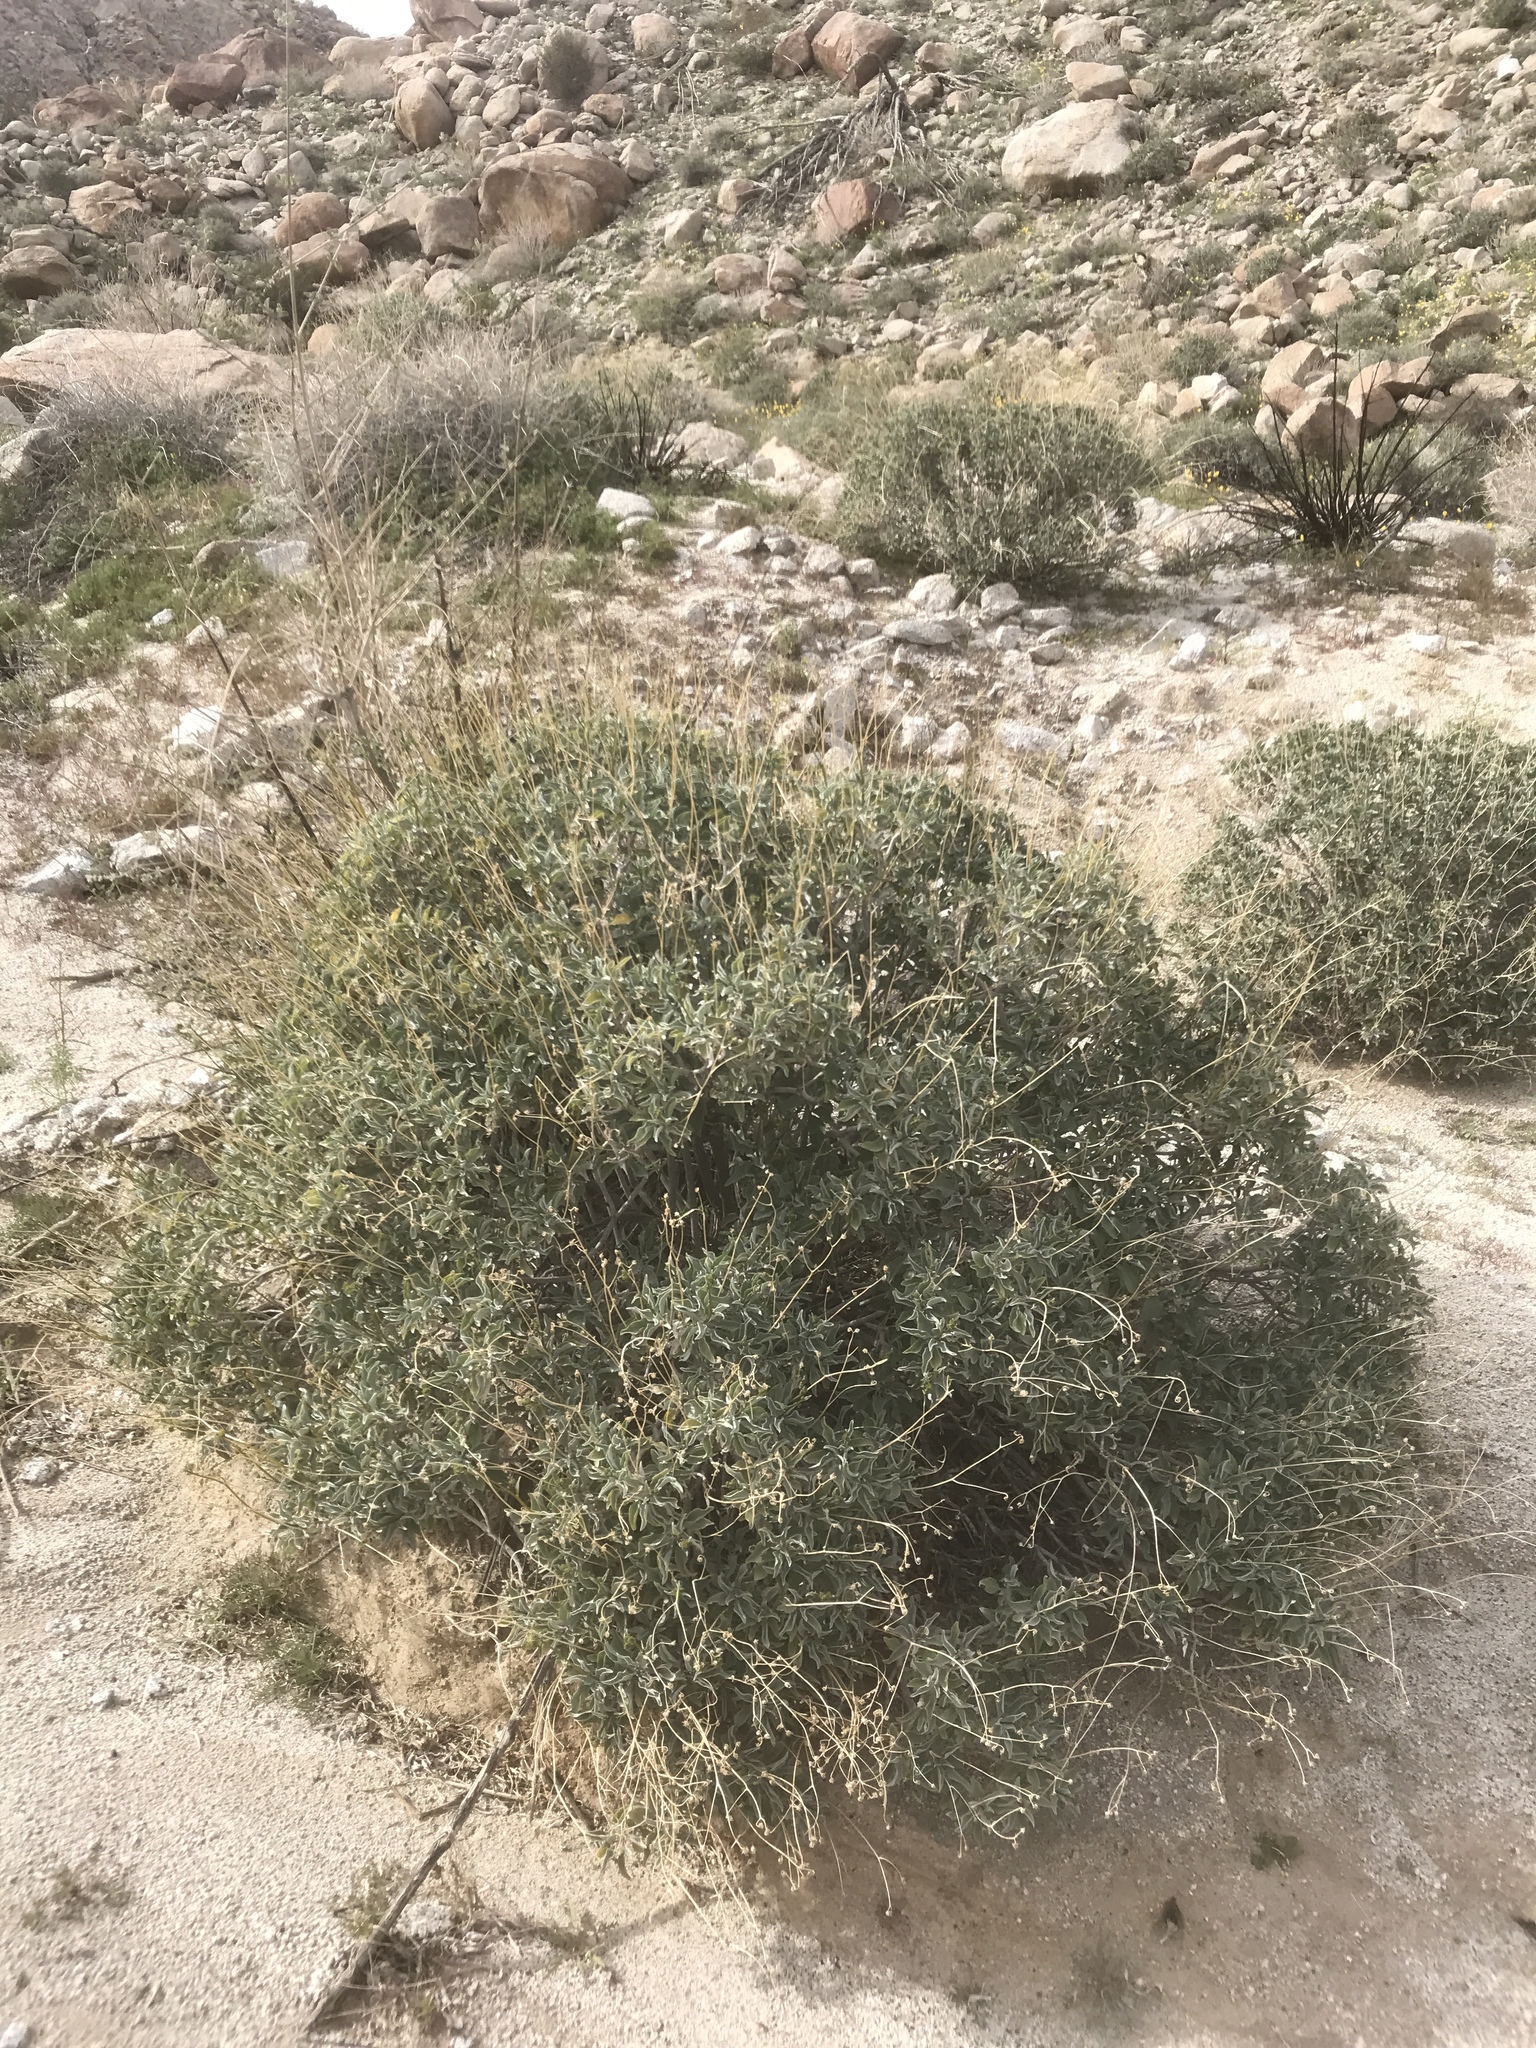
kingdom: Plantae
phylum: Tracheophyta
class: Magnoliopsida
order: Asterales
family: Asteraceae
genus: Encelia
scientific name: Encelia farinosa
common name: Brittlebush
